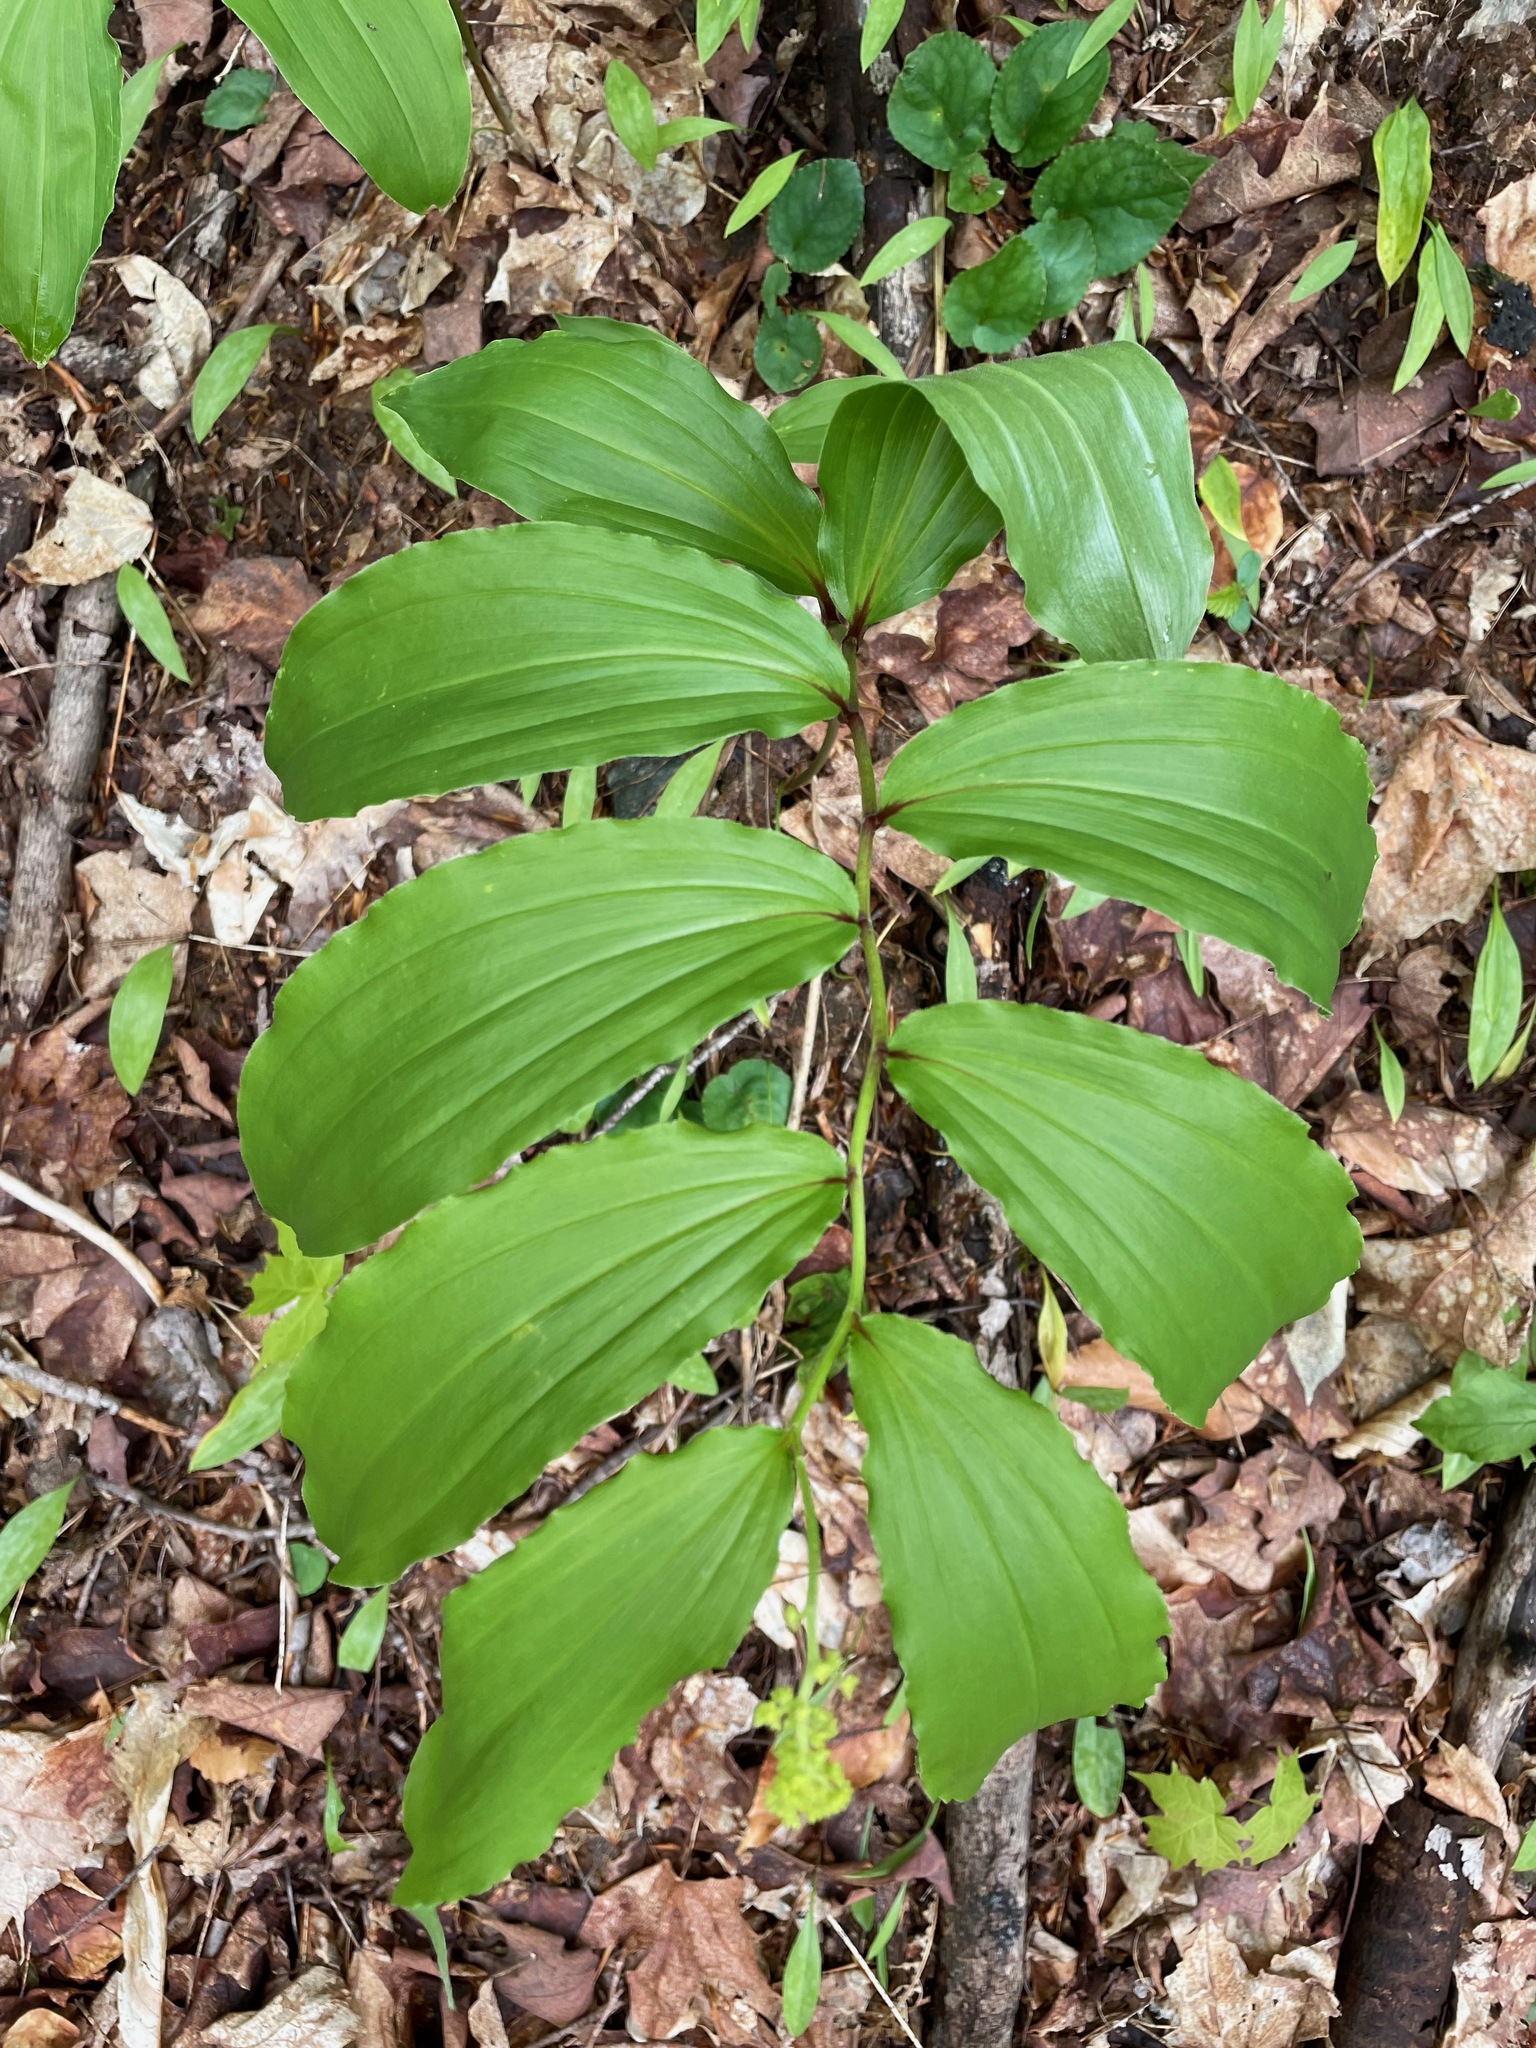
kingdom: Plantae
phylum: Tracheophyta
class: Liliopsida
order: Asparagales
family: Asparagaceae
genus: Maianthemum
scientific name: Maianthemum racemosum
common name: False spikenard
